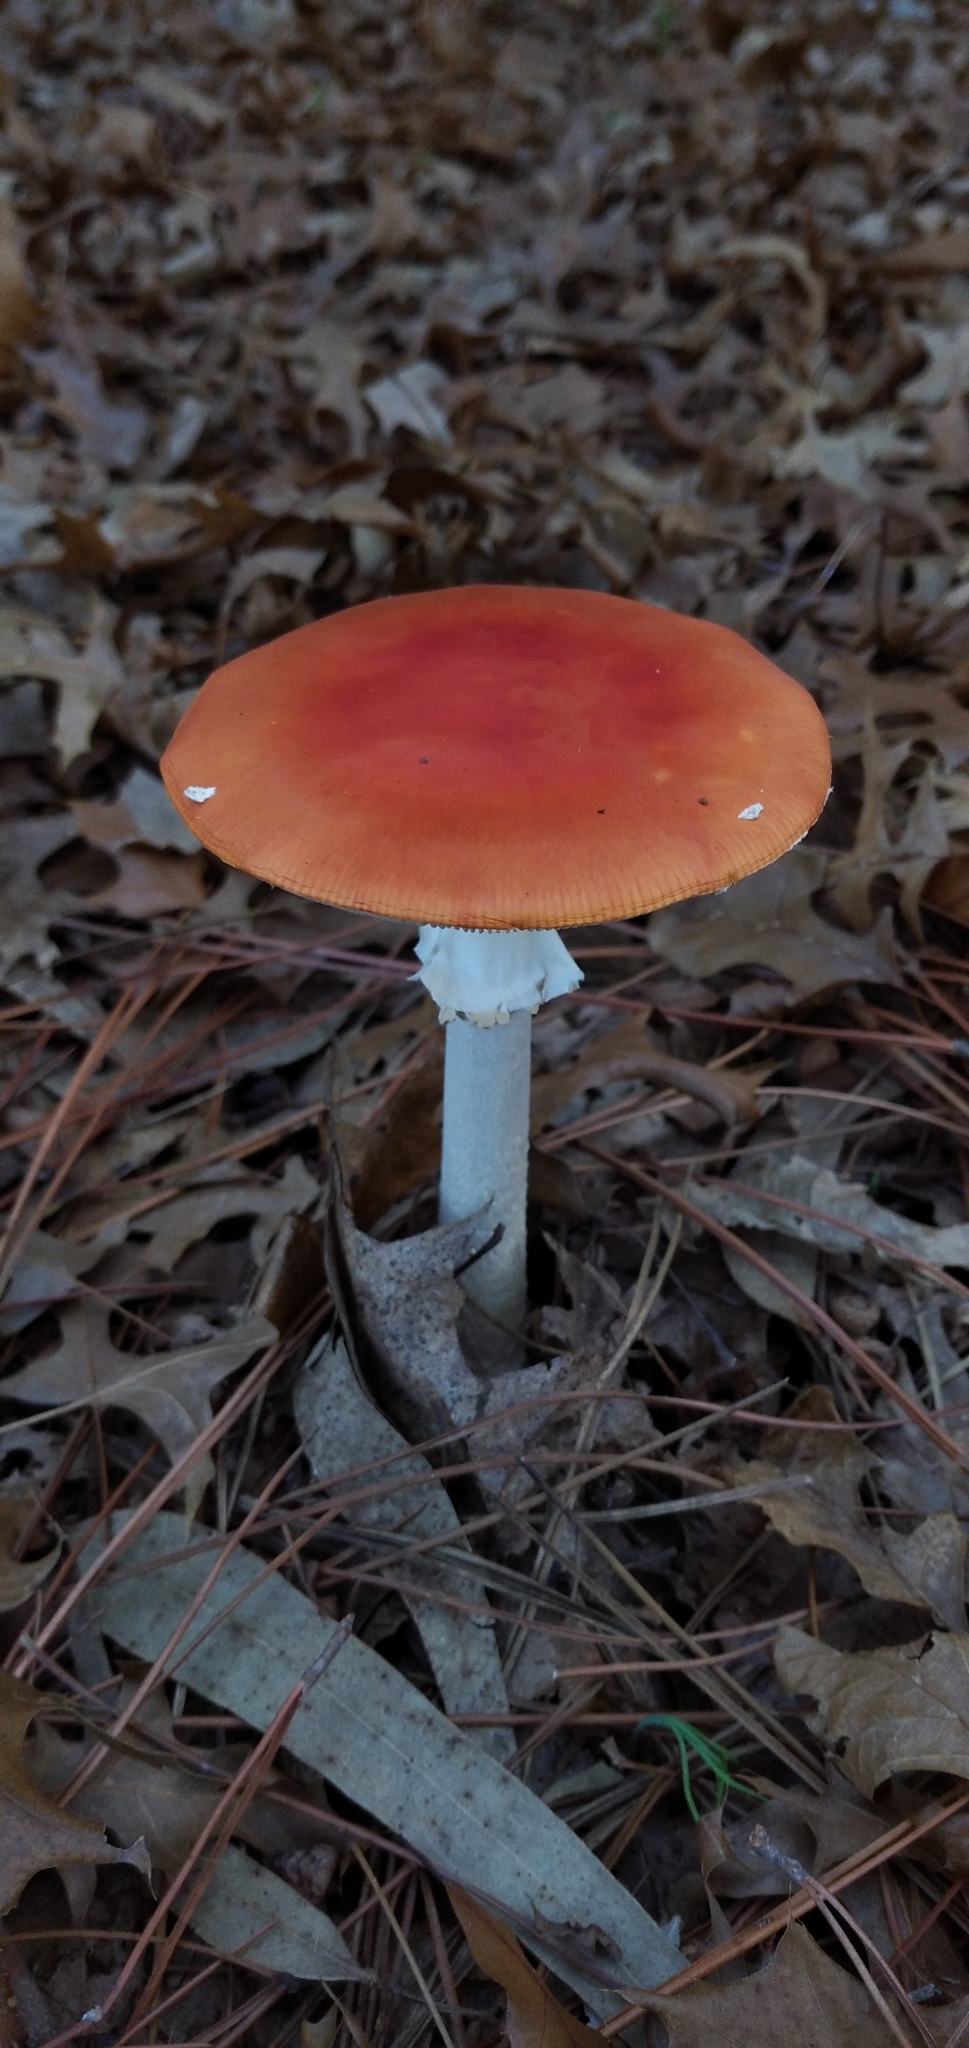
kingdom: Fungi
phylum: Basidiomycota
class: Agaricomycetes
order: Agaricales
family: Amanitaceae
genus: Amanita
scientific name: Amanita muscaria
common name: Fly agaric
